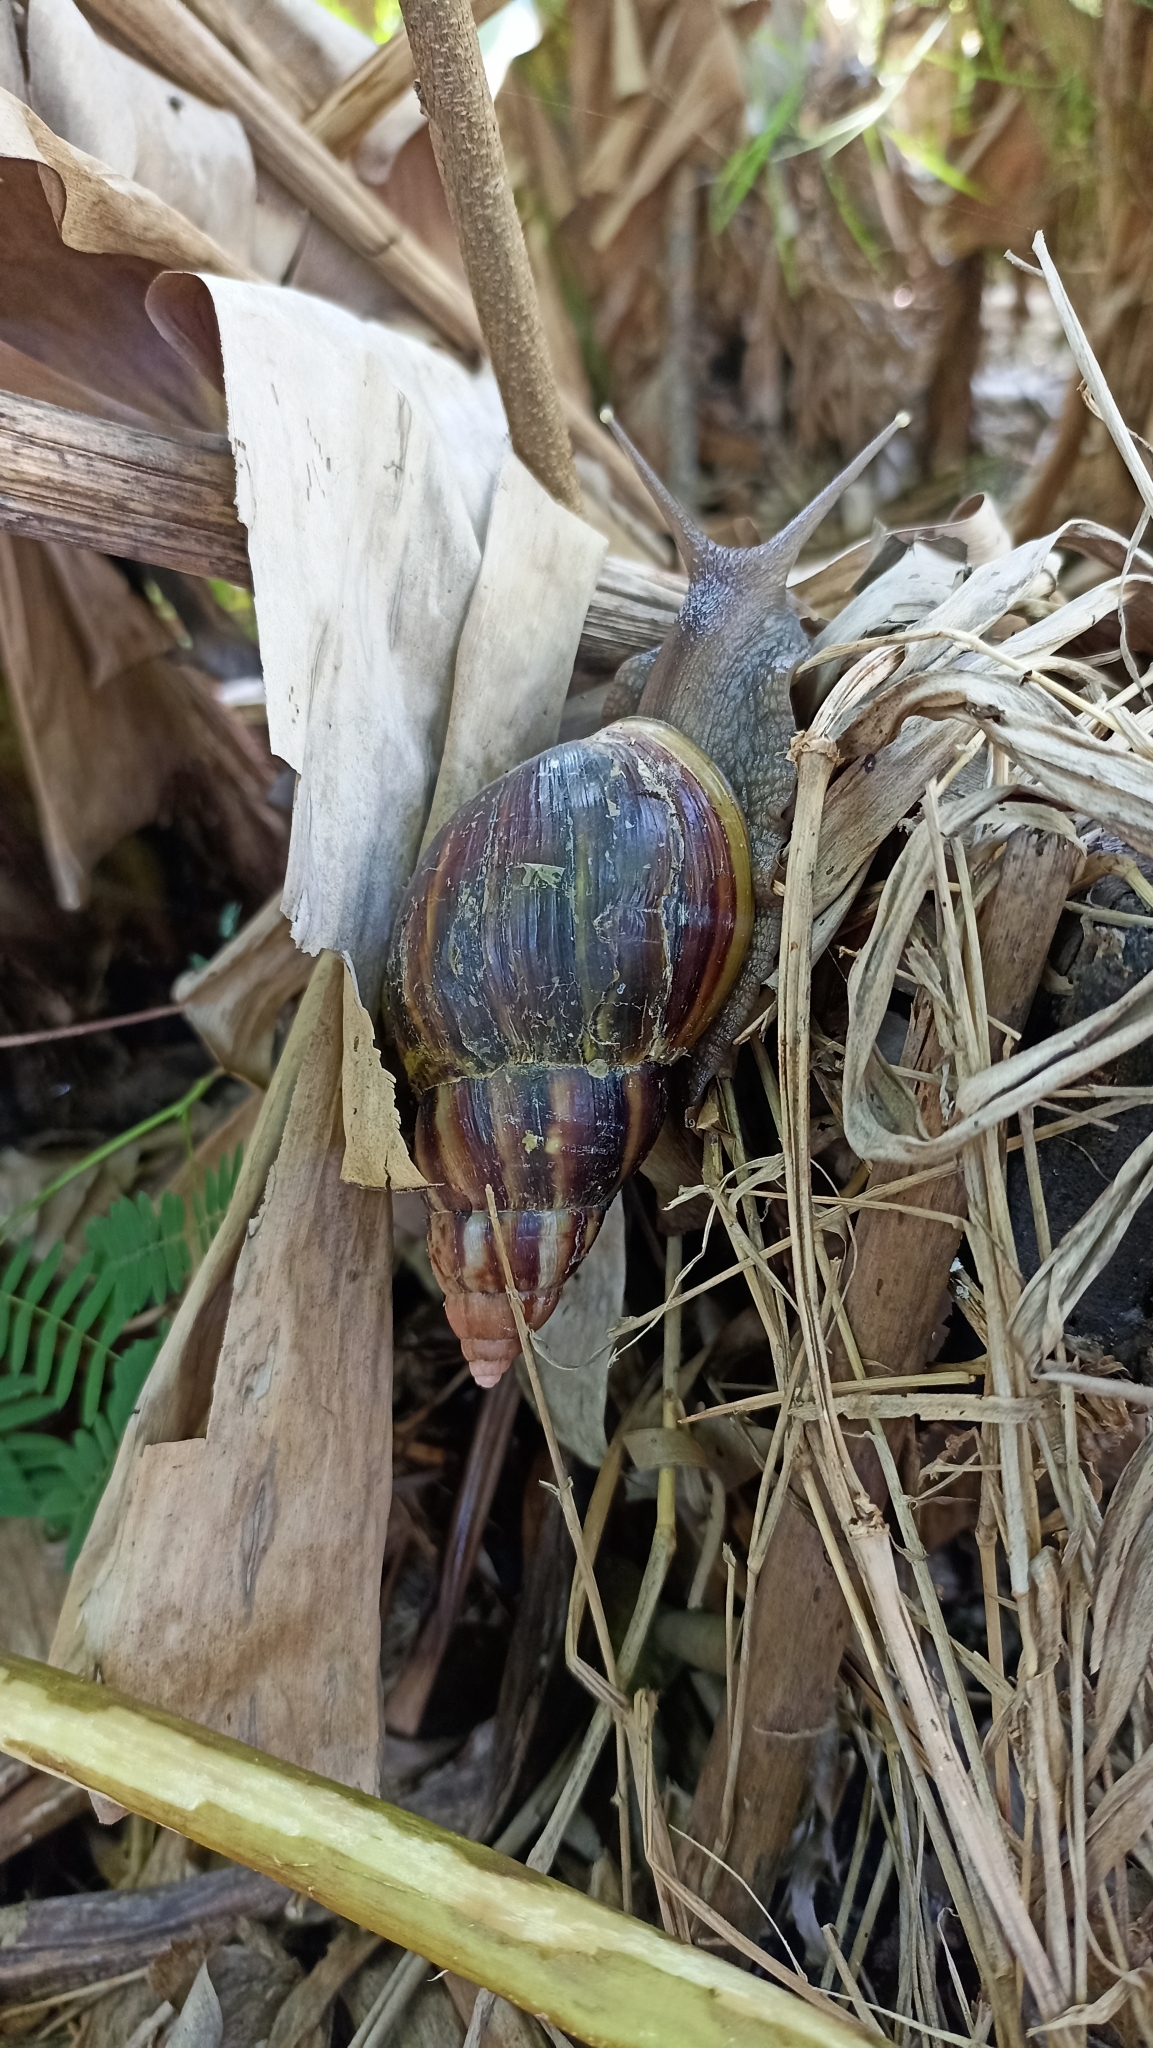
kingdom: Animalia
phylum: Mollusca
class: Gastropoda
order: Stylommatophora
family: Achatinidae
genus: Lissachatina
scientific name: Lissachatina fulica
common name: Giant african snail
